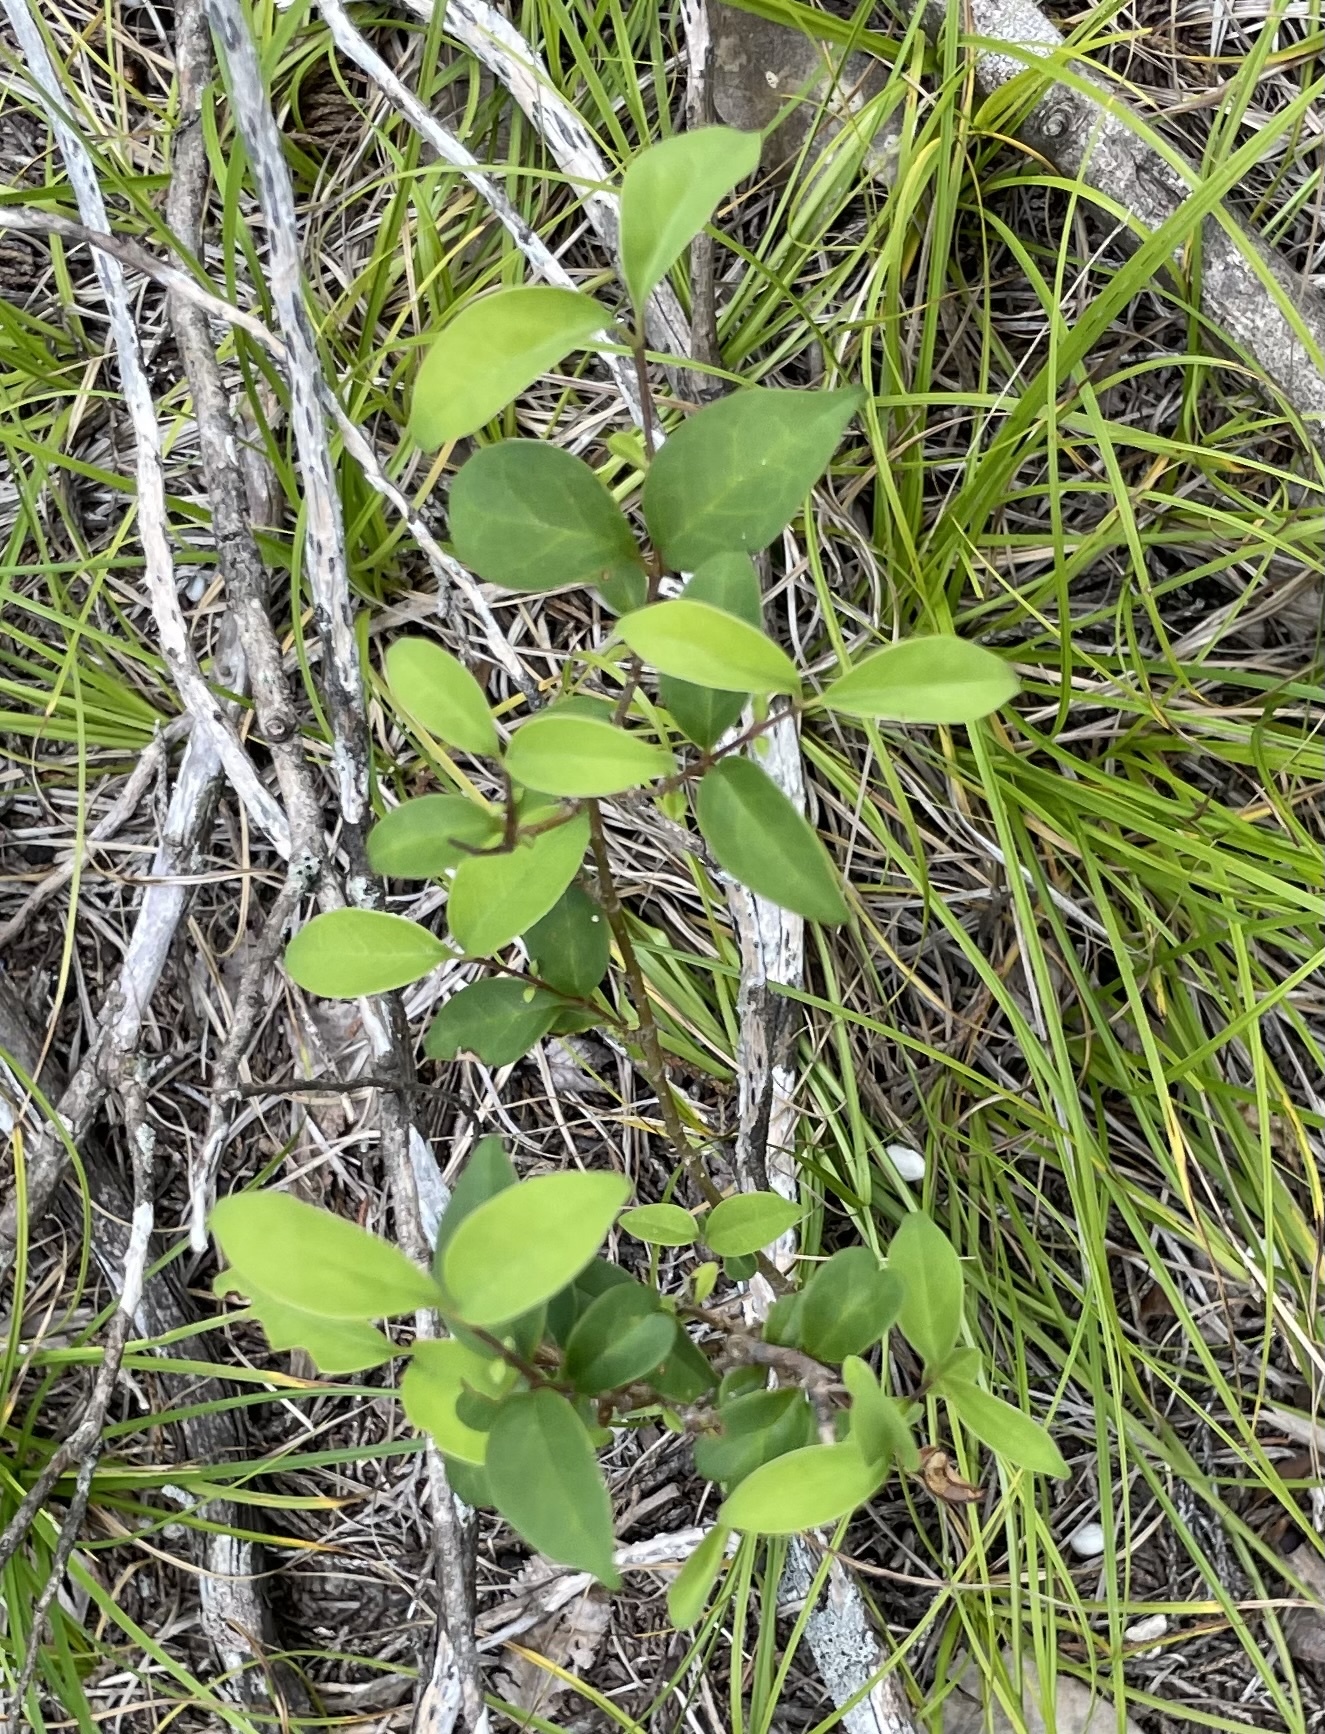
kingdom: Plantae
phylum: Tracheophyta
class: Magnoliopsida
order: Lamiales
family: Oleaceae
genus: Ligustrum
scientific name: Ligustrum lucidum
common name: Glossy privet
